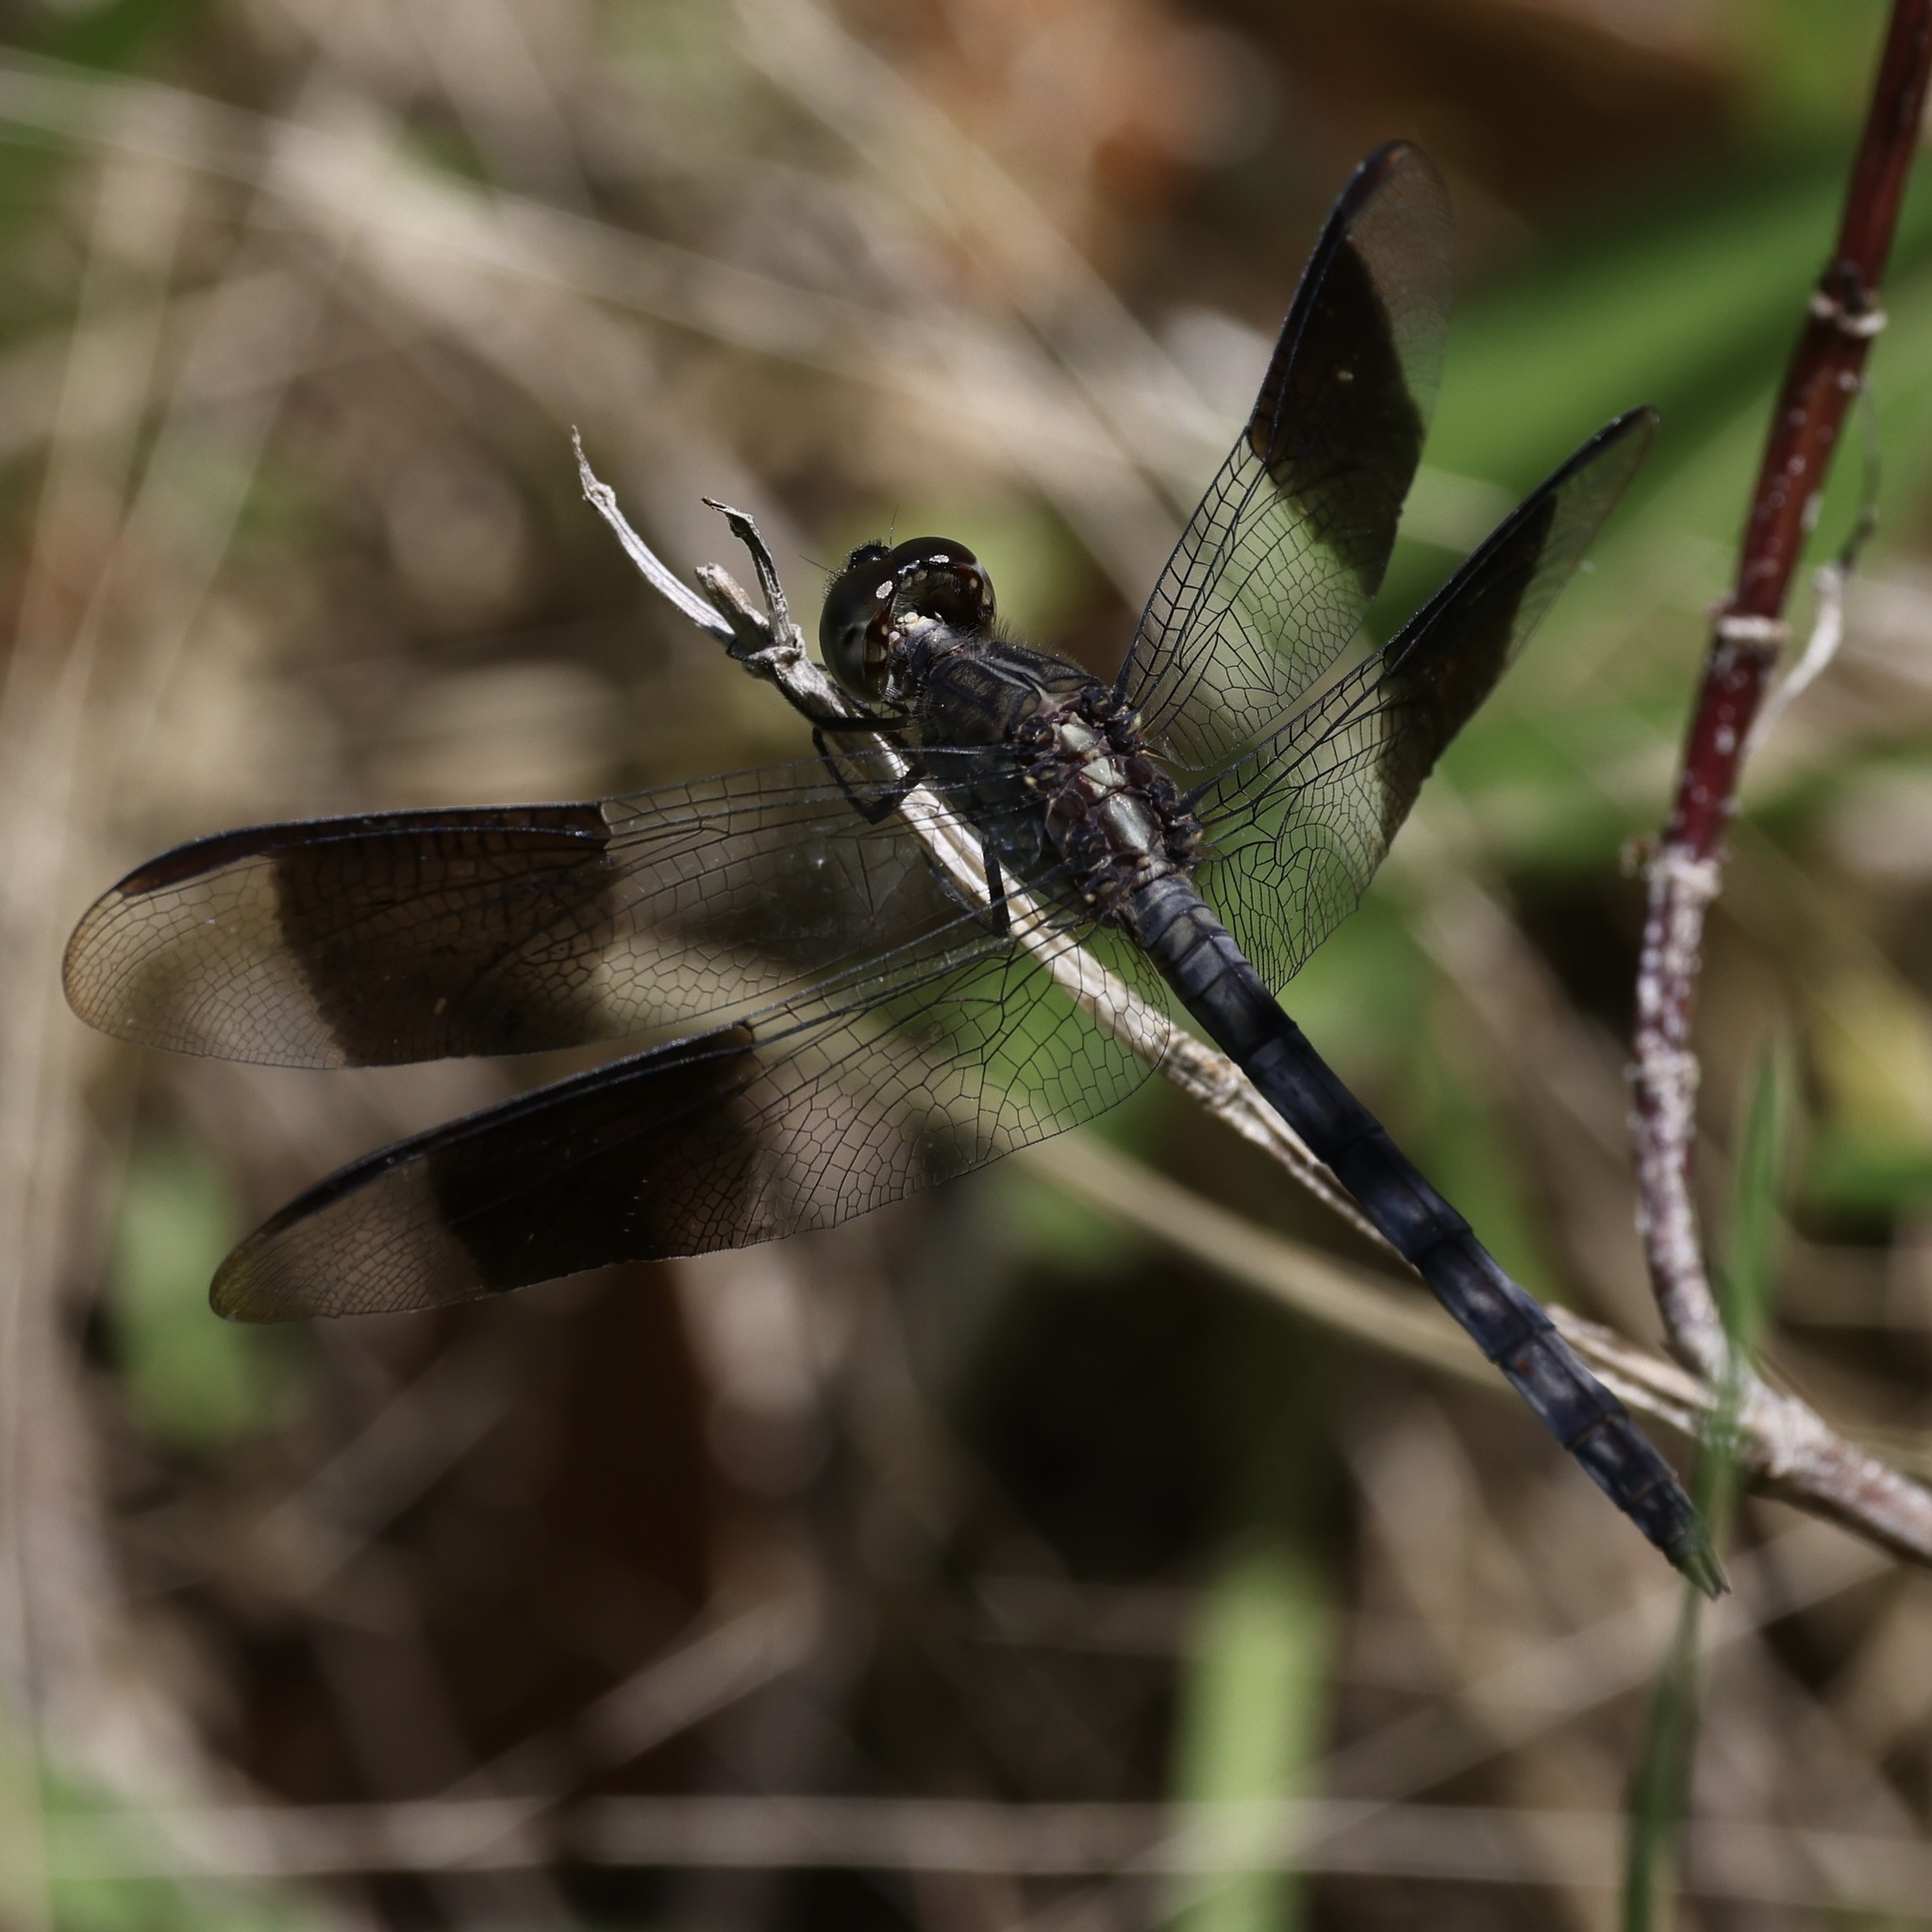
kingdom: Animalia
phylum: Arthropoda
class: Insecta
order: Odonata
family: Libellulidae
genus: Erythrodiplax
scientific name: Erythrodiplax umbrata
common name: Band-winged dragonlet
